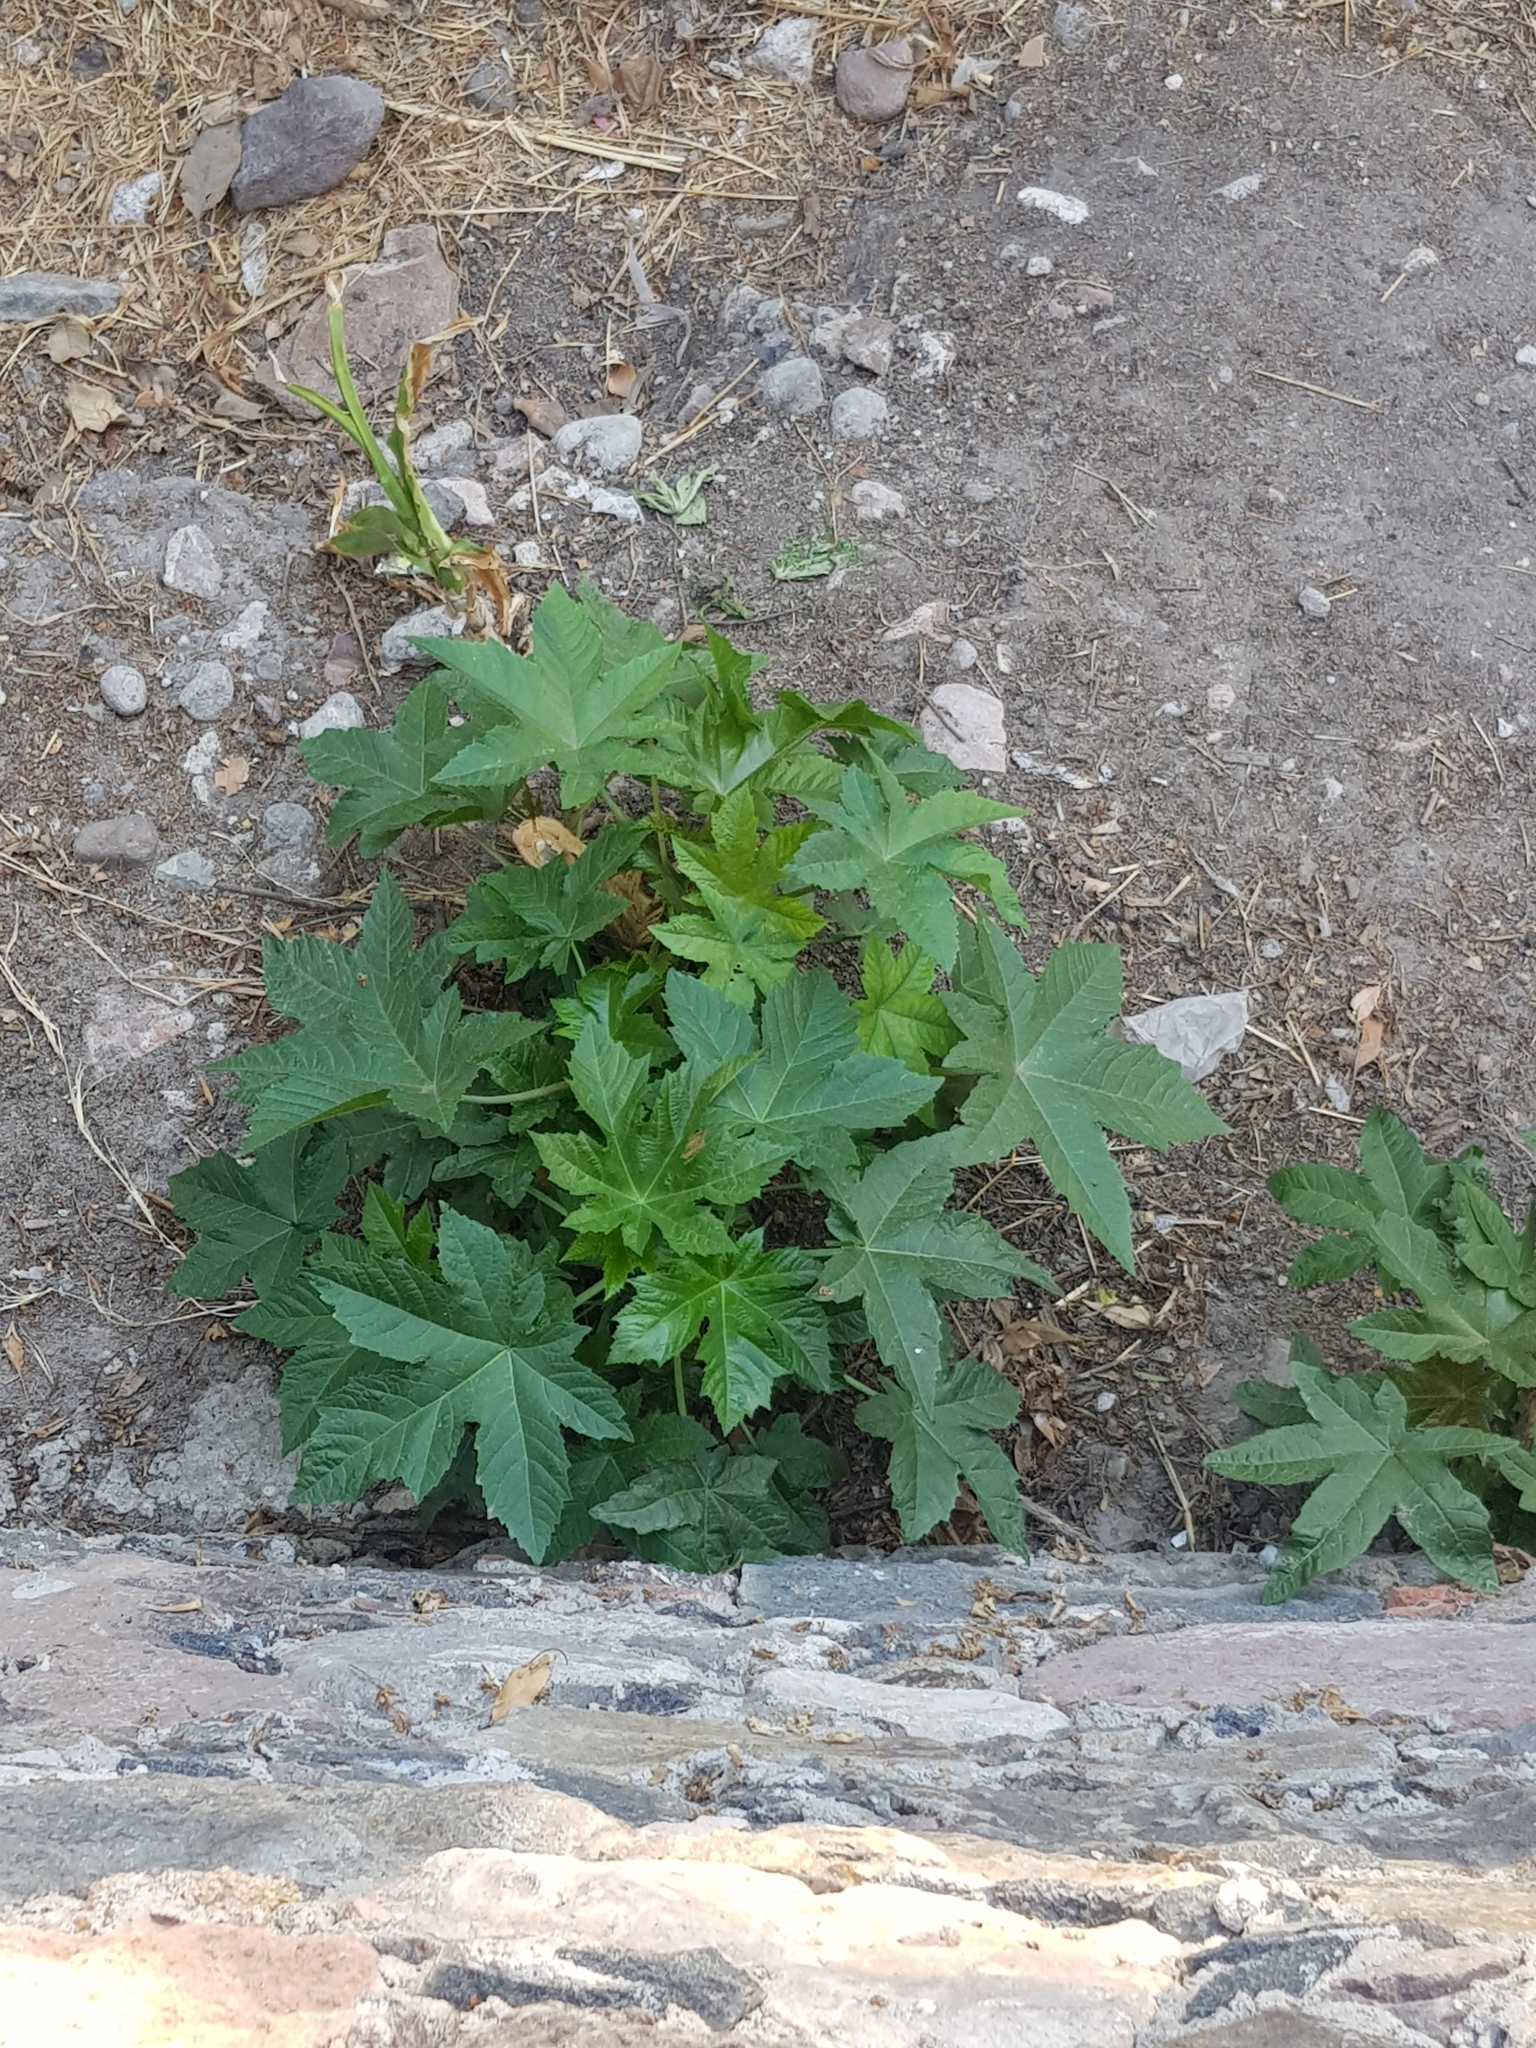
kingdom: Plantae
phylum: Tracheophyta
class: Magnoliopsida
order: Malpighiales
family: Euphorbiaceae
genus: Ricinus
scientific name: Ricinus communis
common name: Castor-oil-plant
